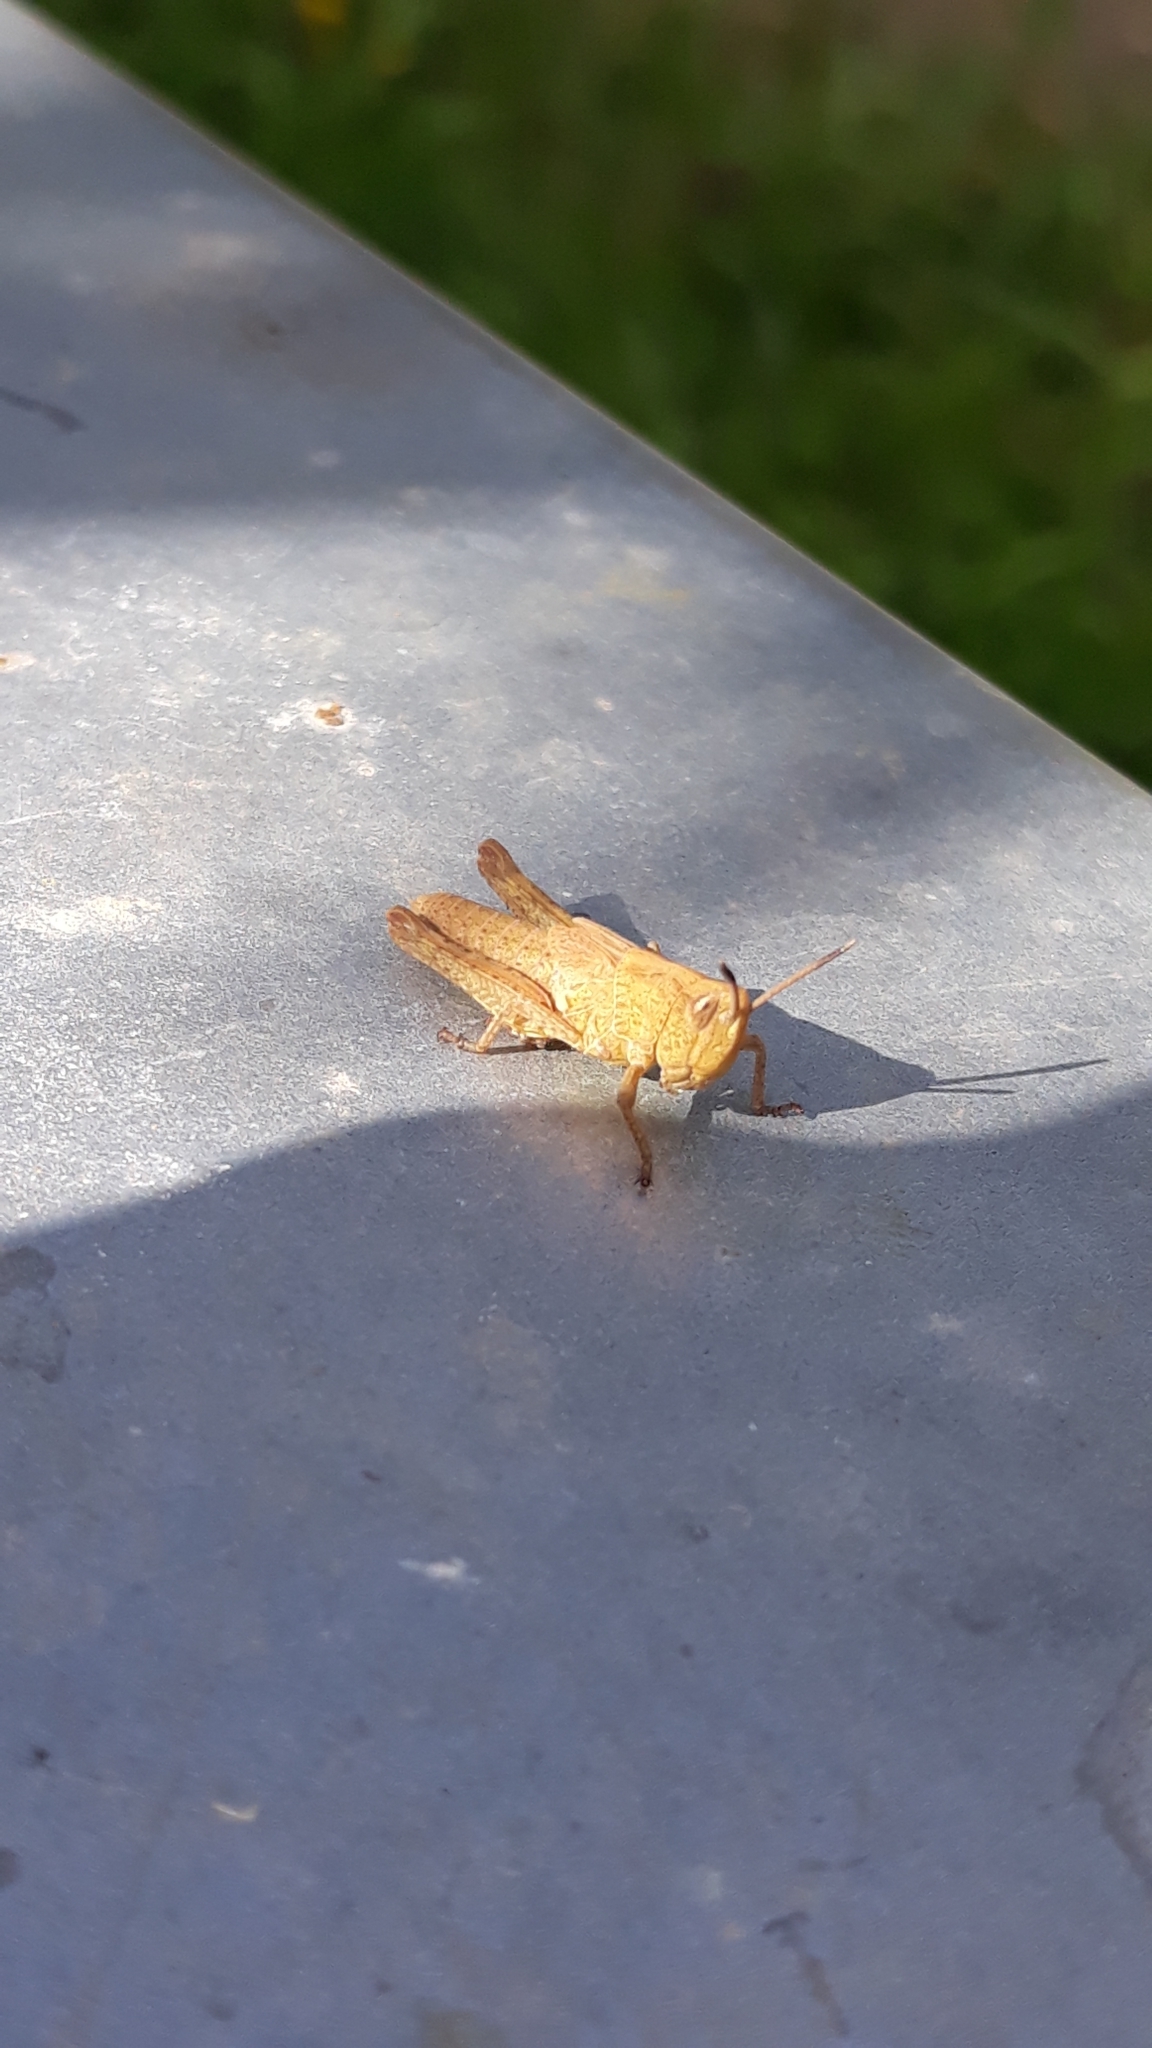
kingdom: Animalia
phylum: Arthropoda
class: Insecta
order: Orthoptera
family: Acrididae
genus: Gomphocerippus
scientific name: Gomphocerippus rufus
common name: Rufous grasshopper
